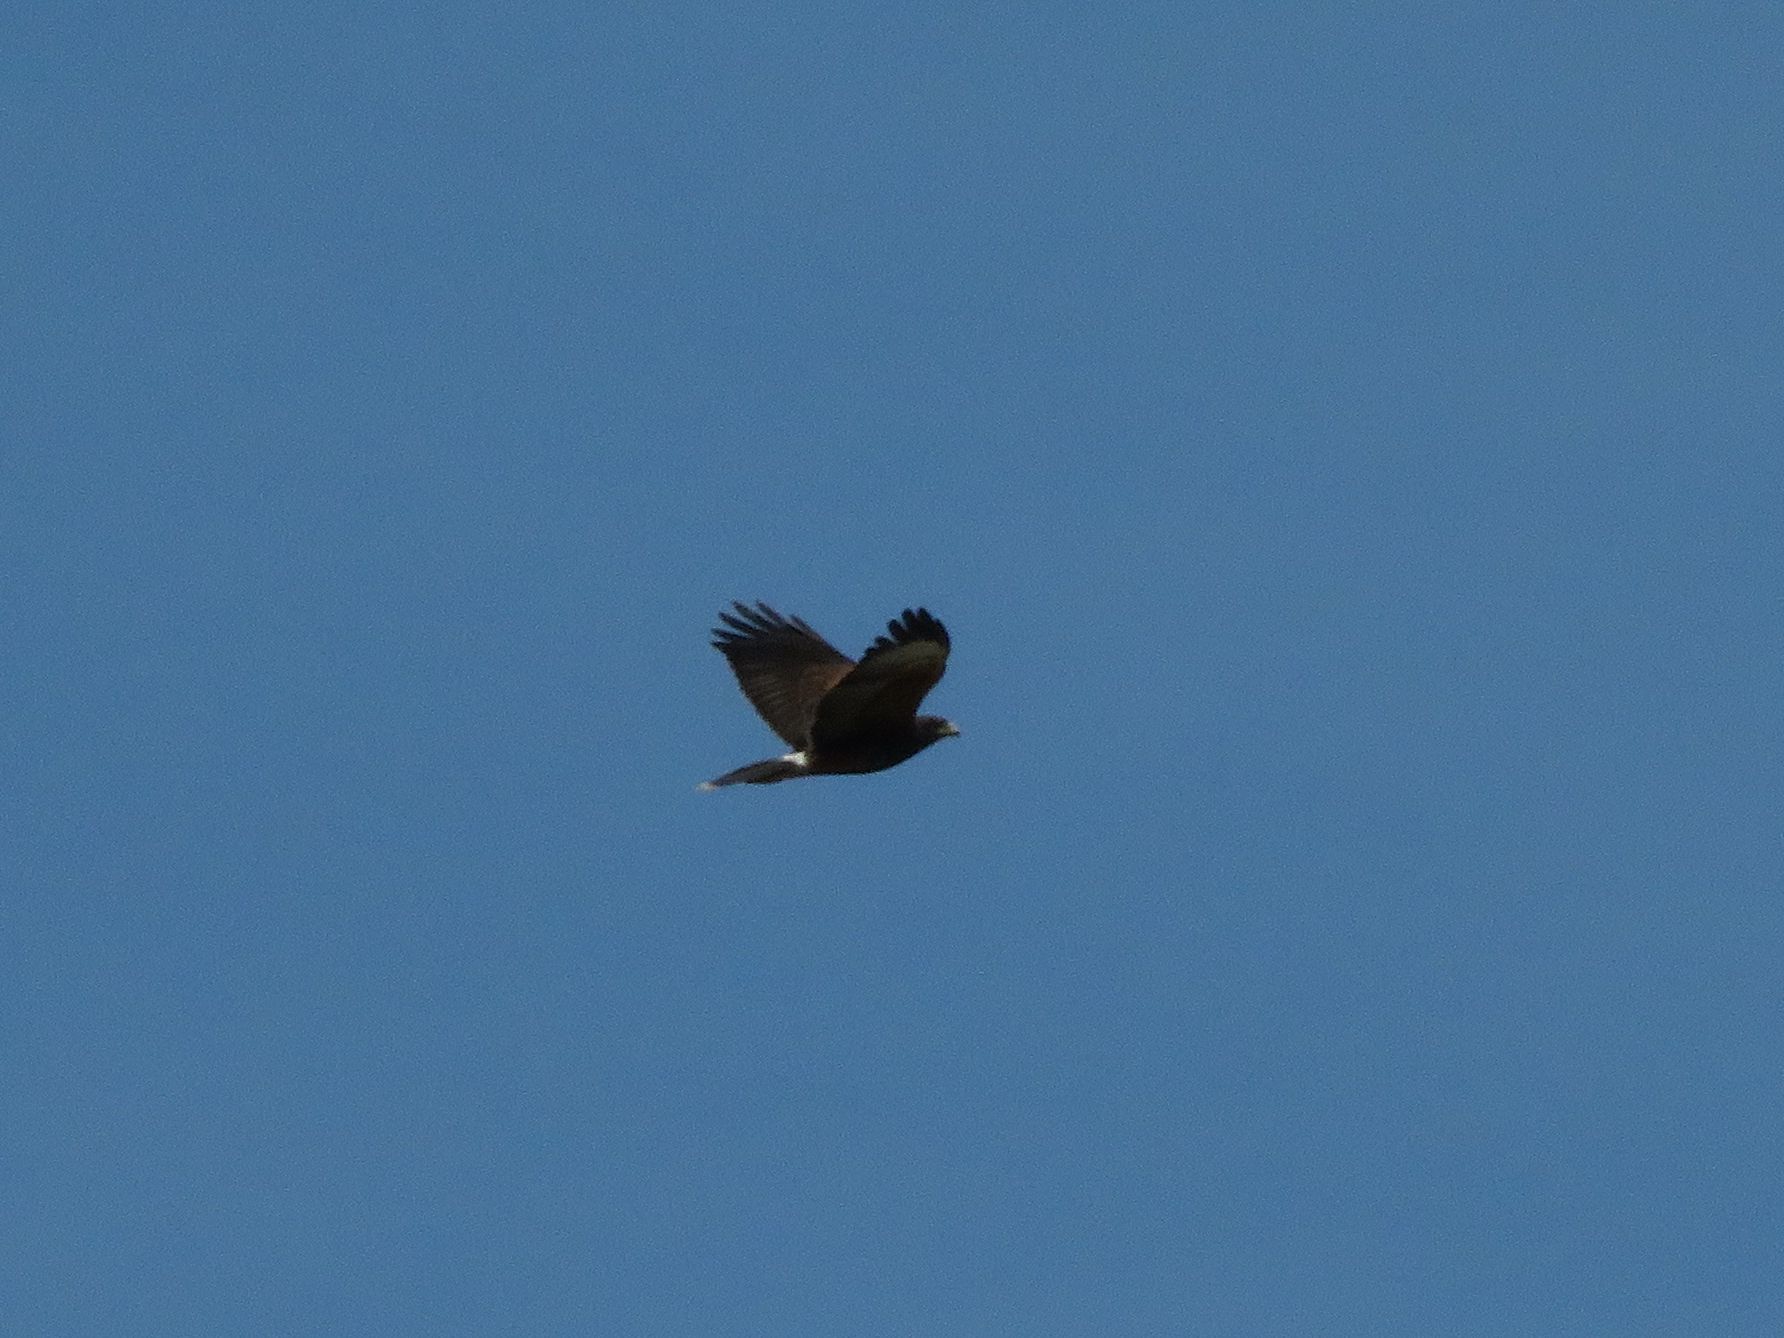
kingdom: Animalia
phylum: Chordata
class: Aves
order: Accipitriformes
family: Accipitridae
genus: Parabuteo
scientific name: Parabuteo unicinctus
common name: Harris's hawk
